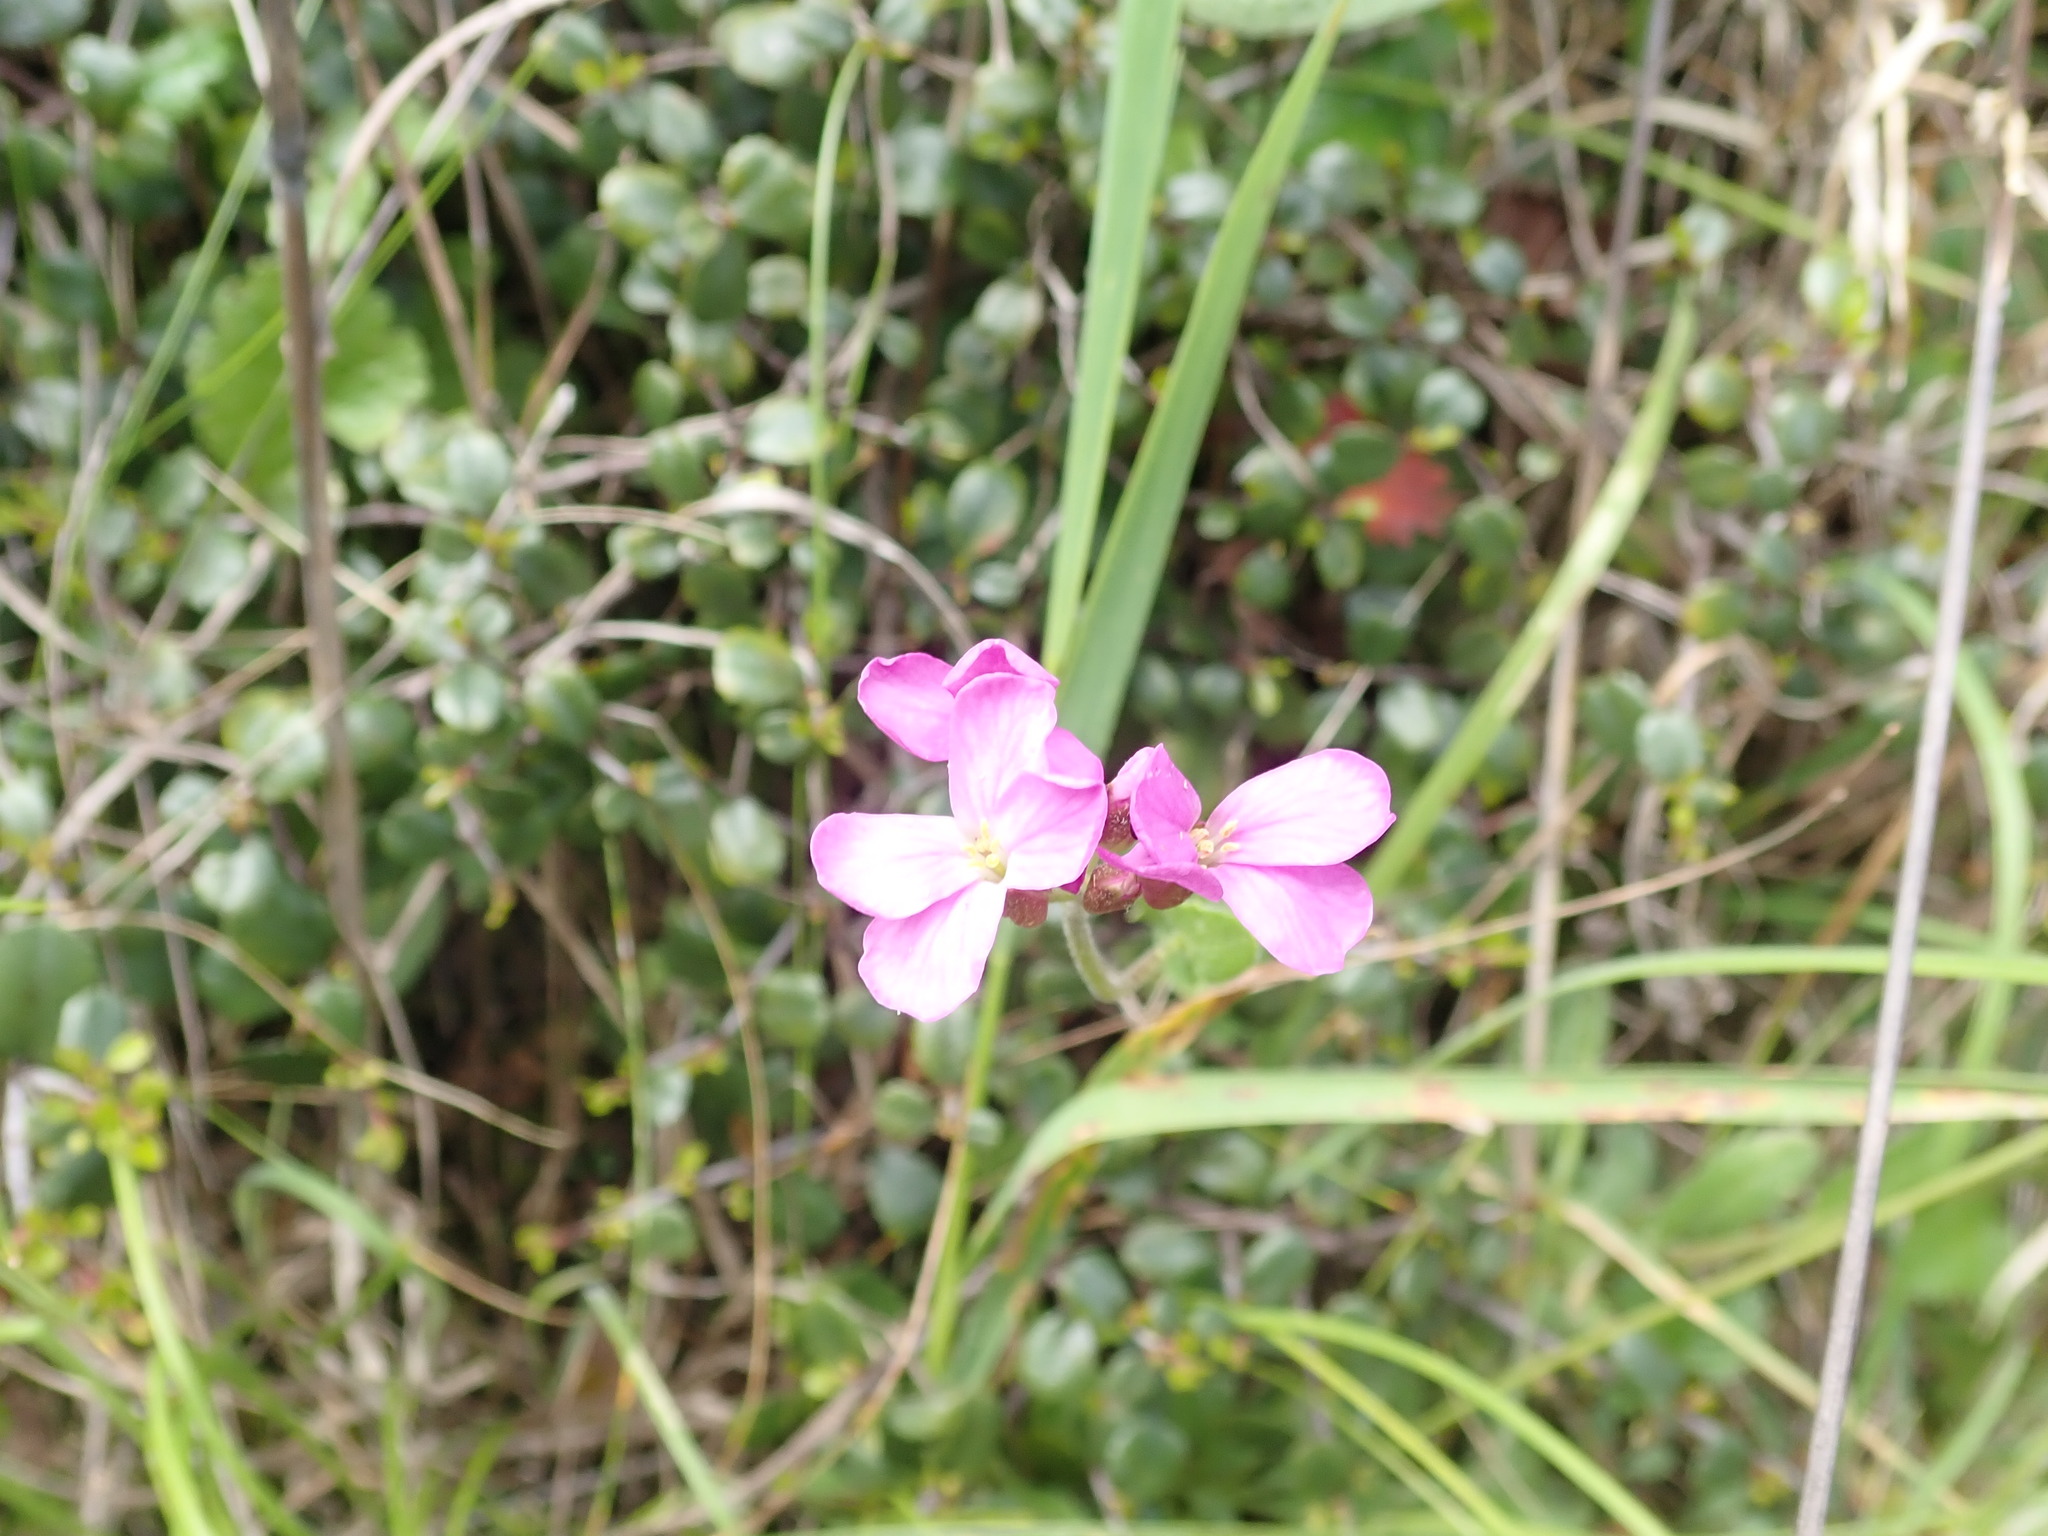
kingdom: Plantae
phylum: Tracheophyta
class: Magnoliopsida
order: Brassicales
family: Brassicaceae
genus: Arabis
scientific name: Arabis blepharophylla
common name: Rose rockcress
